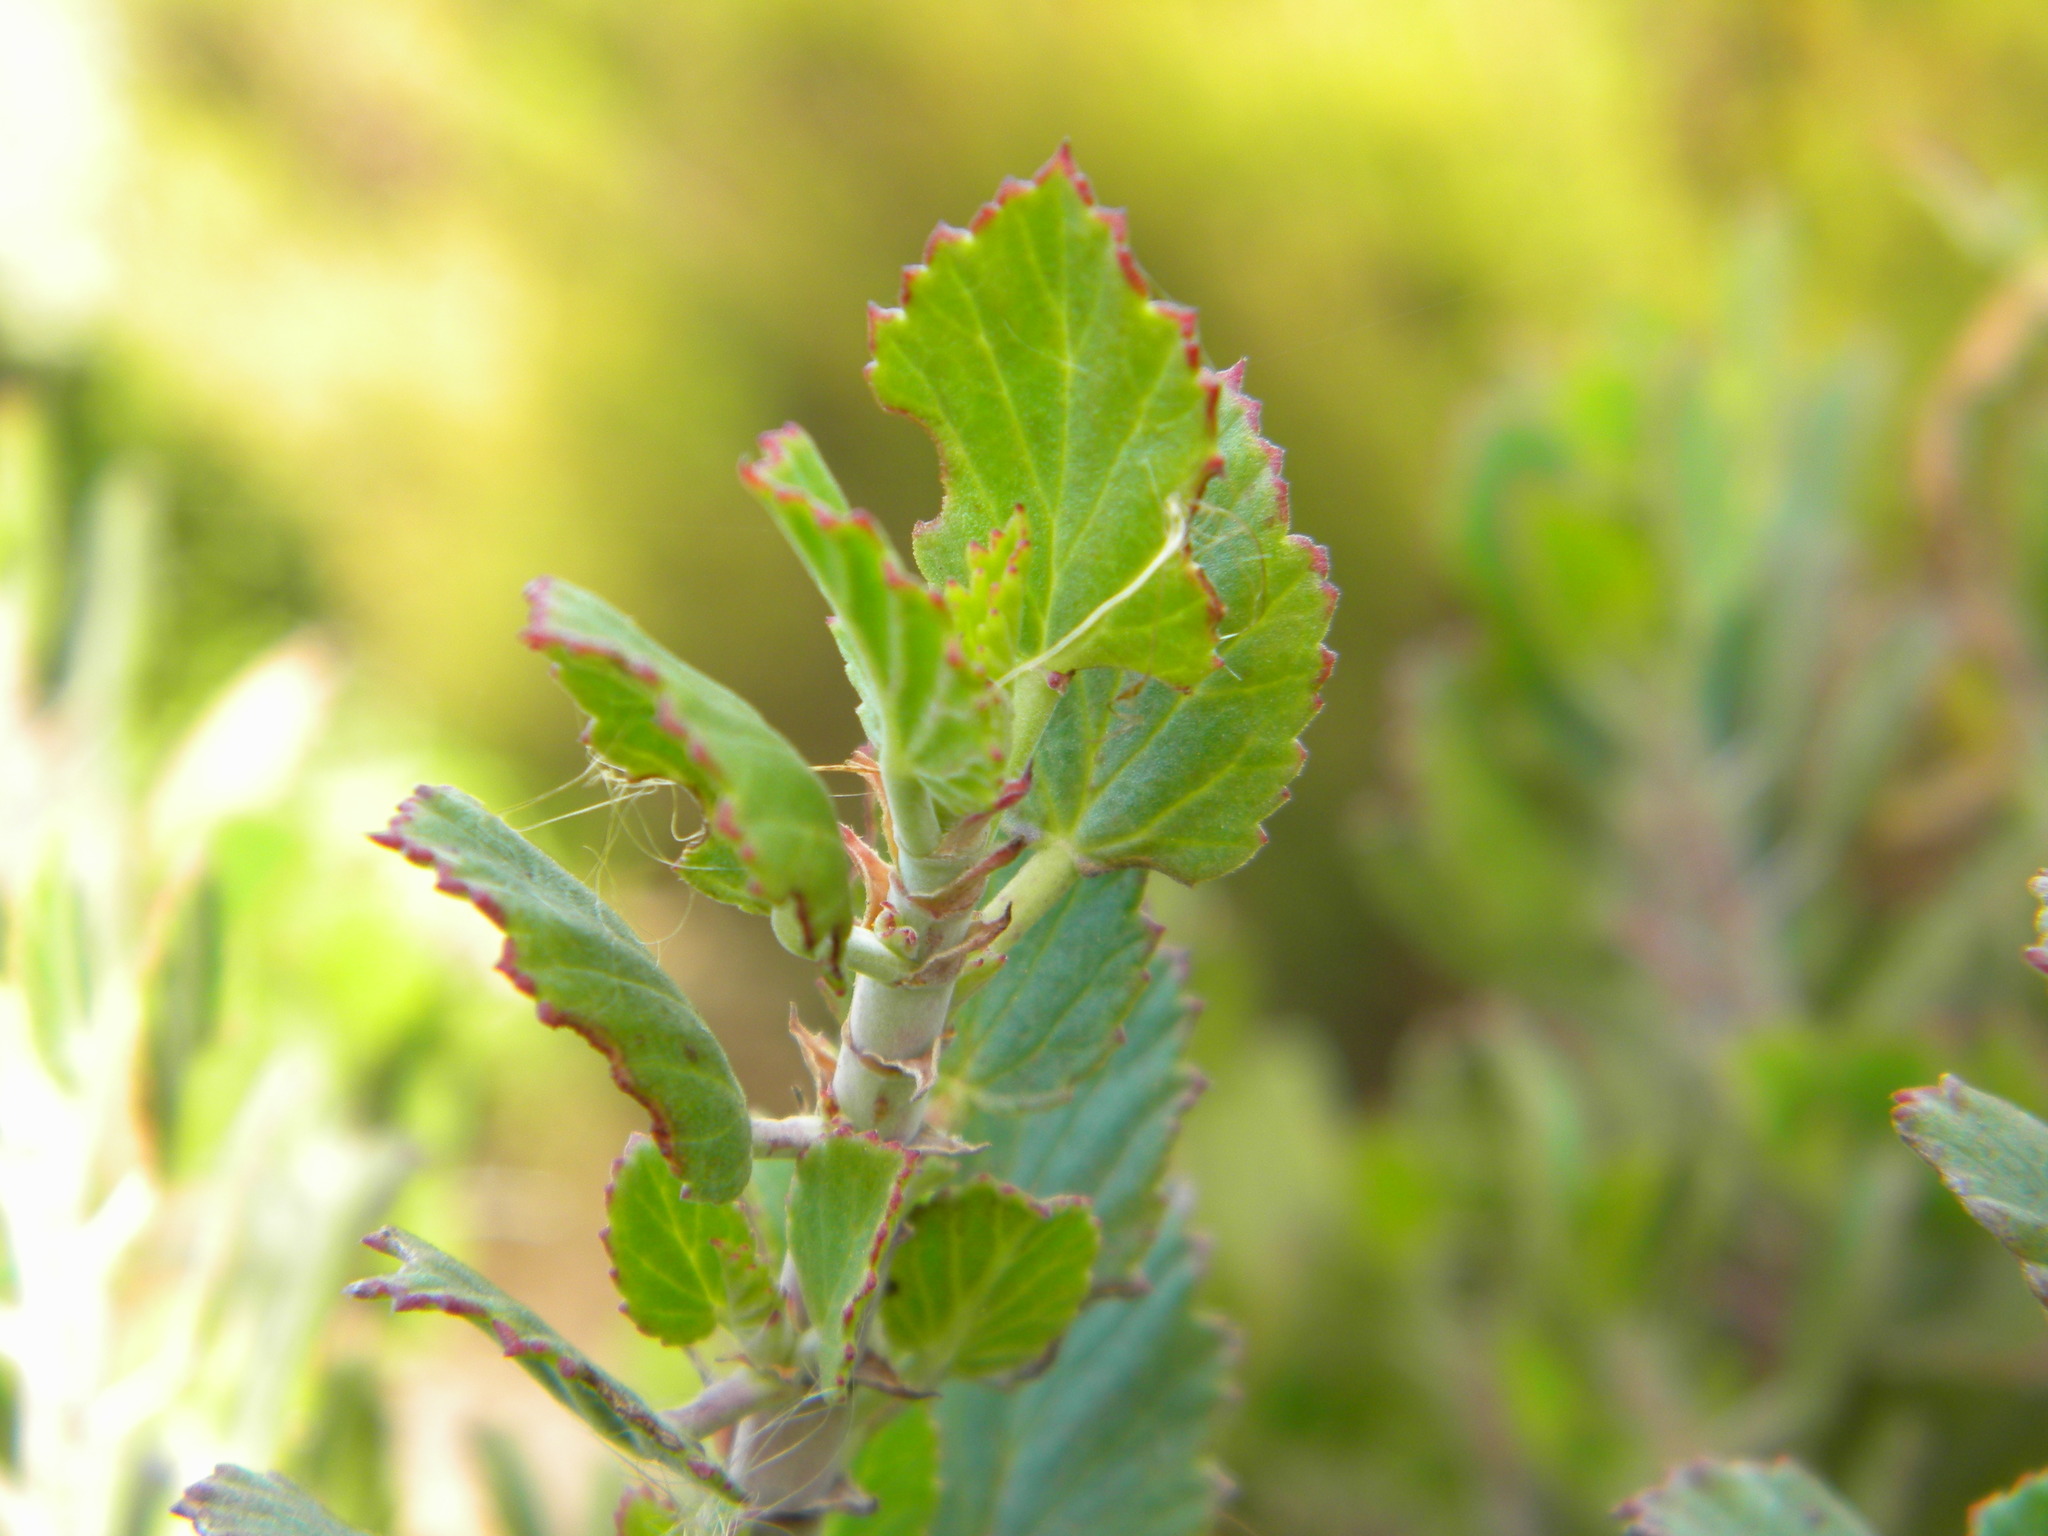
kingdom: Plantae
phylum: Tracheophyta
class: Magnoliopsida
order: Geraniales
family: Geraniaceae
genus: Pelargonium
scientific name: Pelargonium betulinum
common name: Birch-leaf pelargonium
